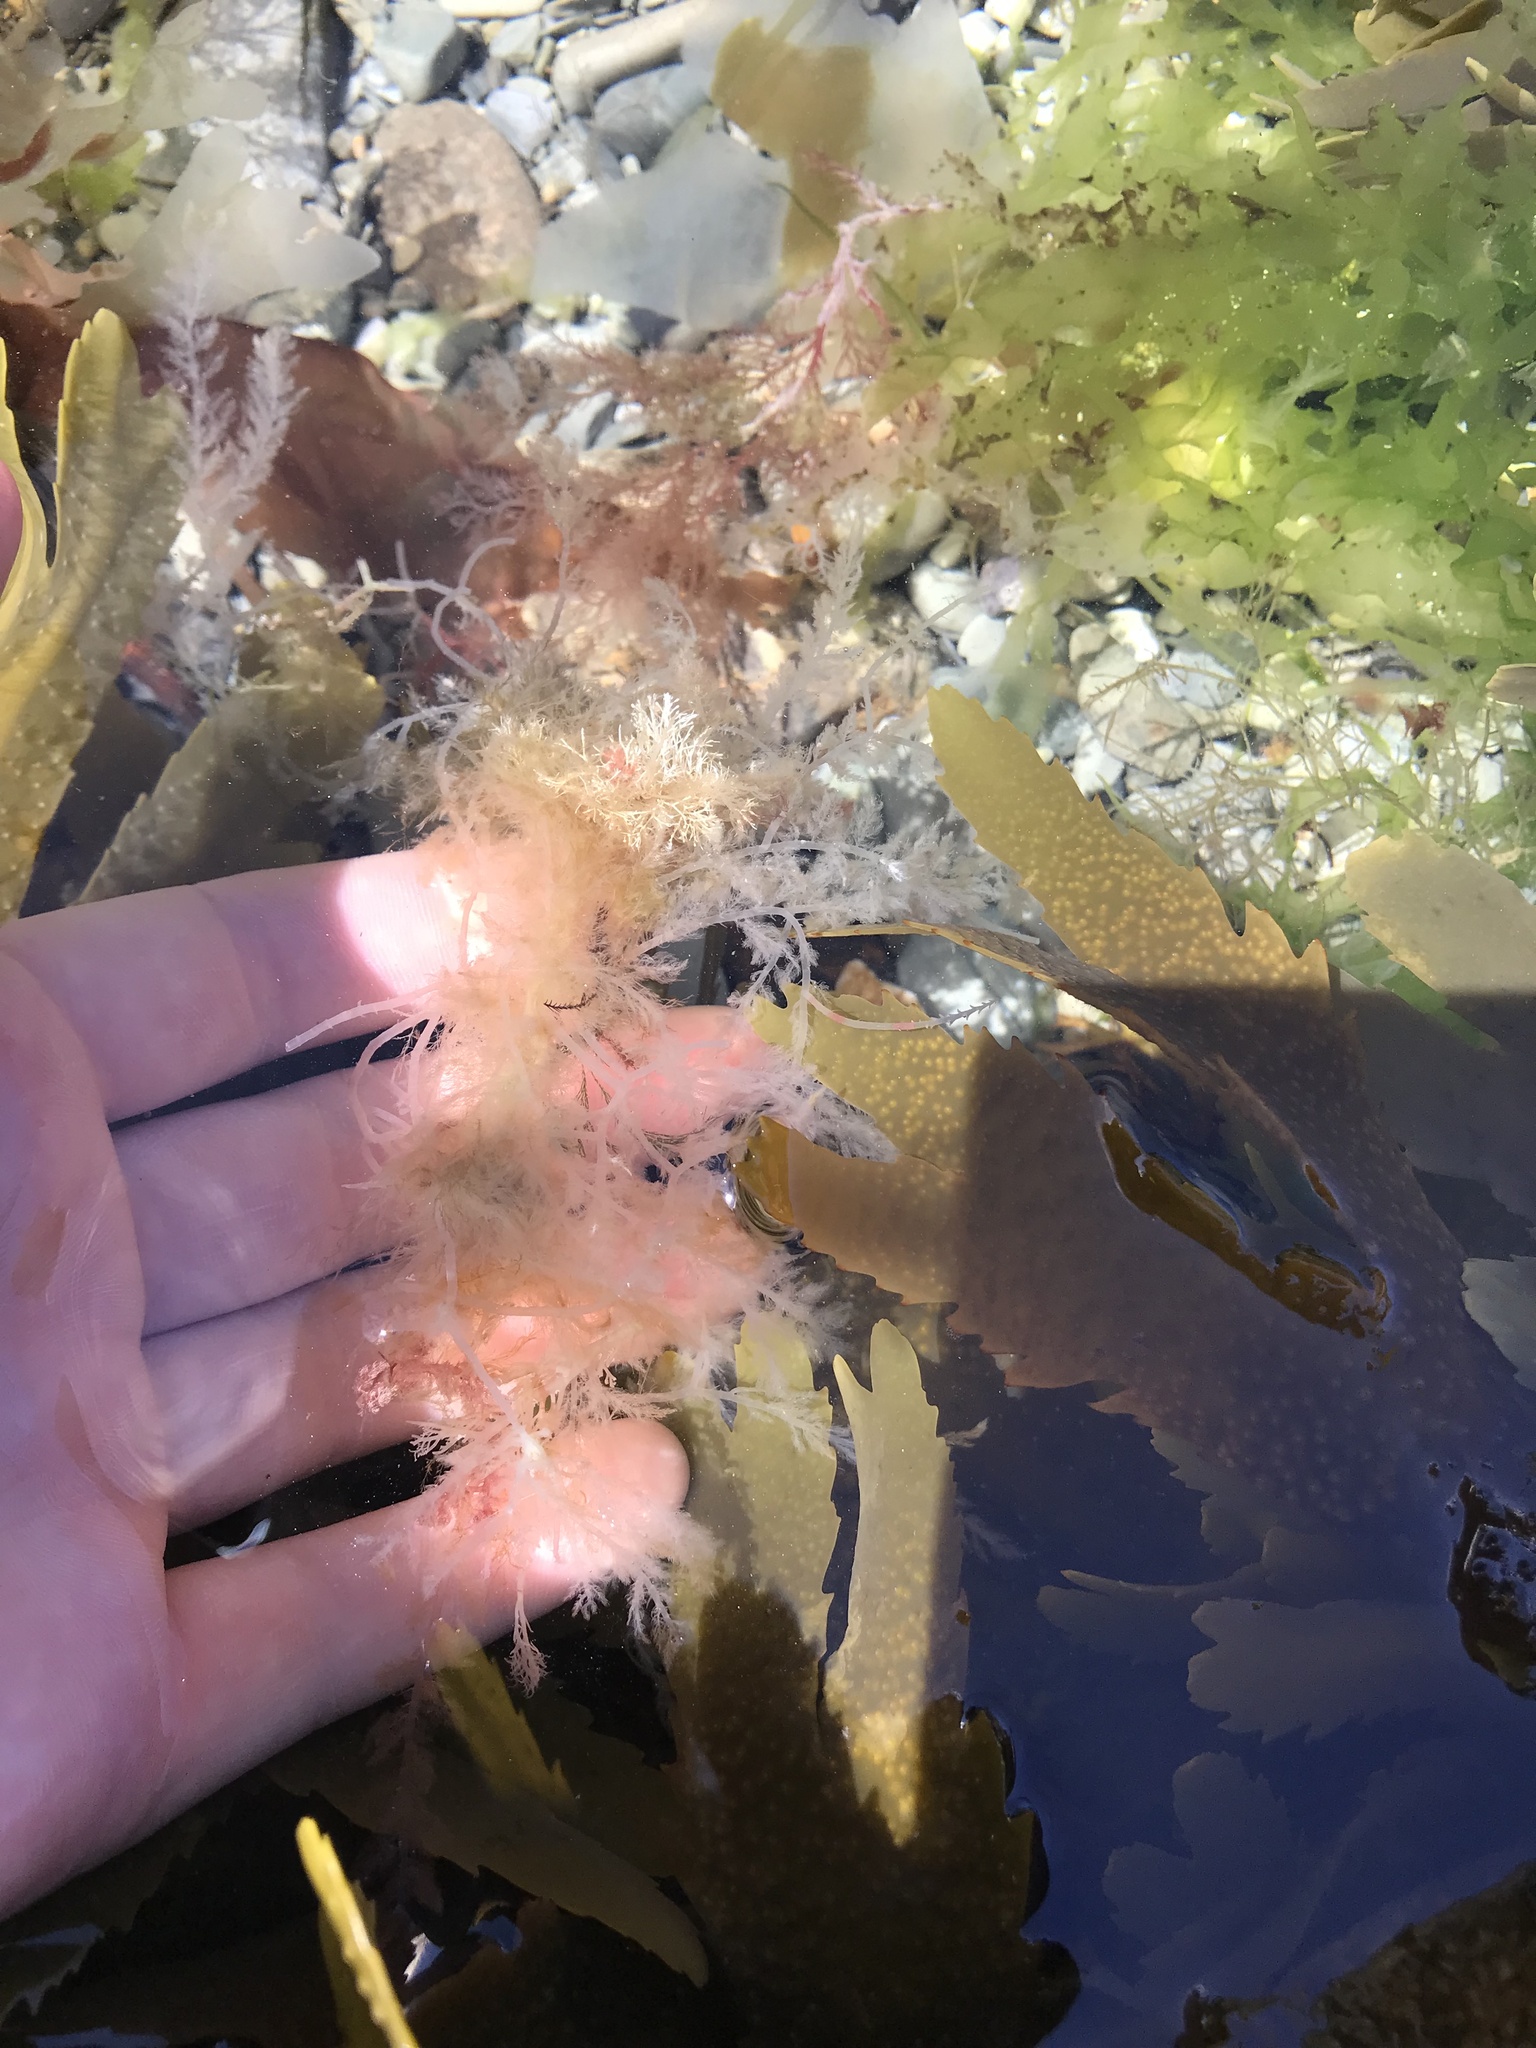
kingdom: Plantae
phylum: Rhodophyta
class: Florideophyceae
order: Bonnemaisoniales
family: Bonnemaisoniaceae
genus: Asparagopsis
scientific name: Asparagopsis armata
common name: Harpoon weed
